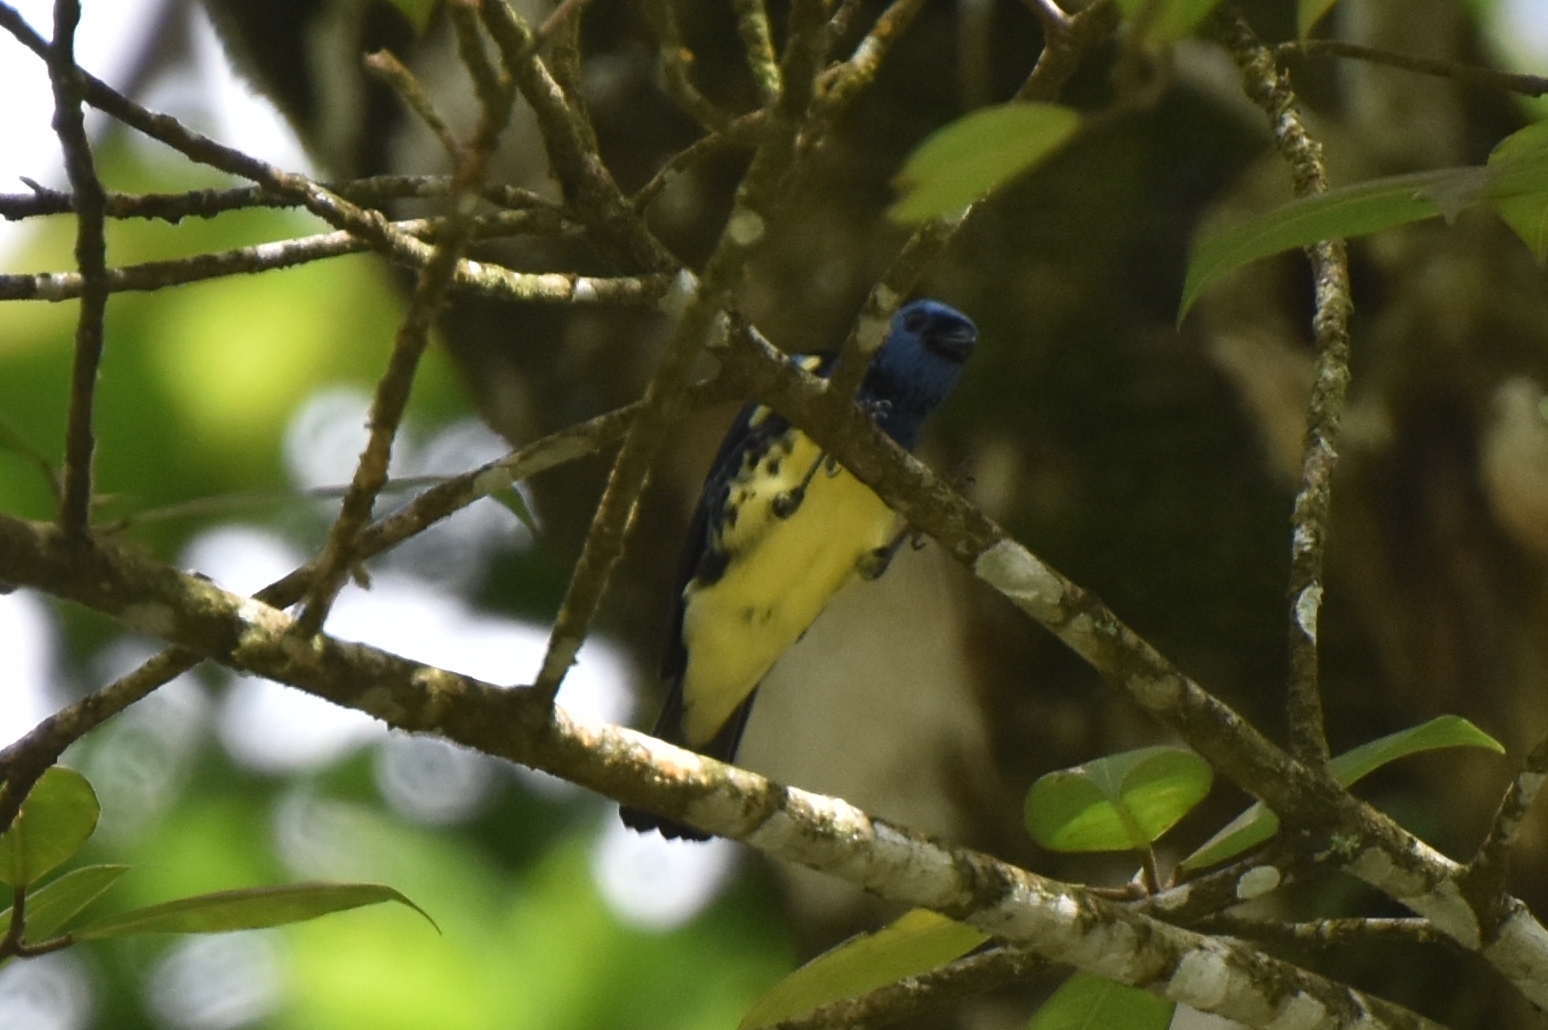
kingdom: Animalia
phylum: Chordata
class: Aves
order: Passeriformes
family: Thraupidae
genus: Tangara
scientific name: Tangara mexicana
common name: Turquoise tanager
